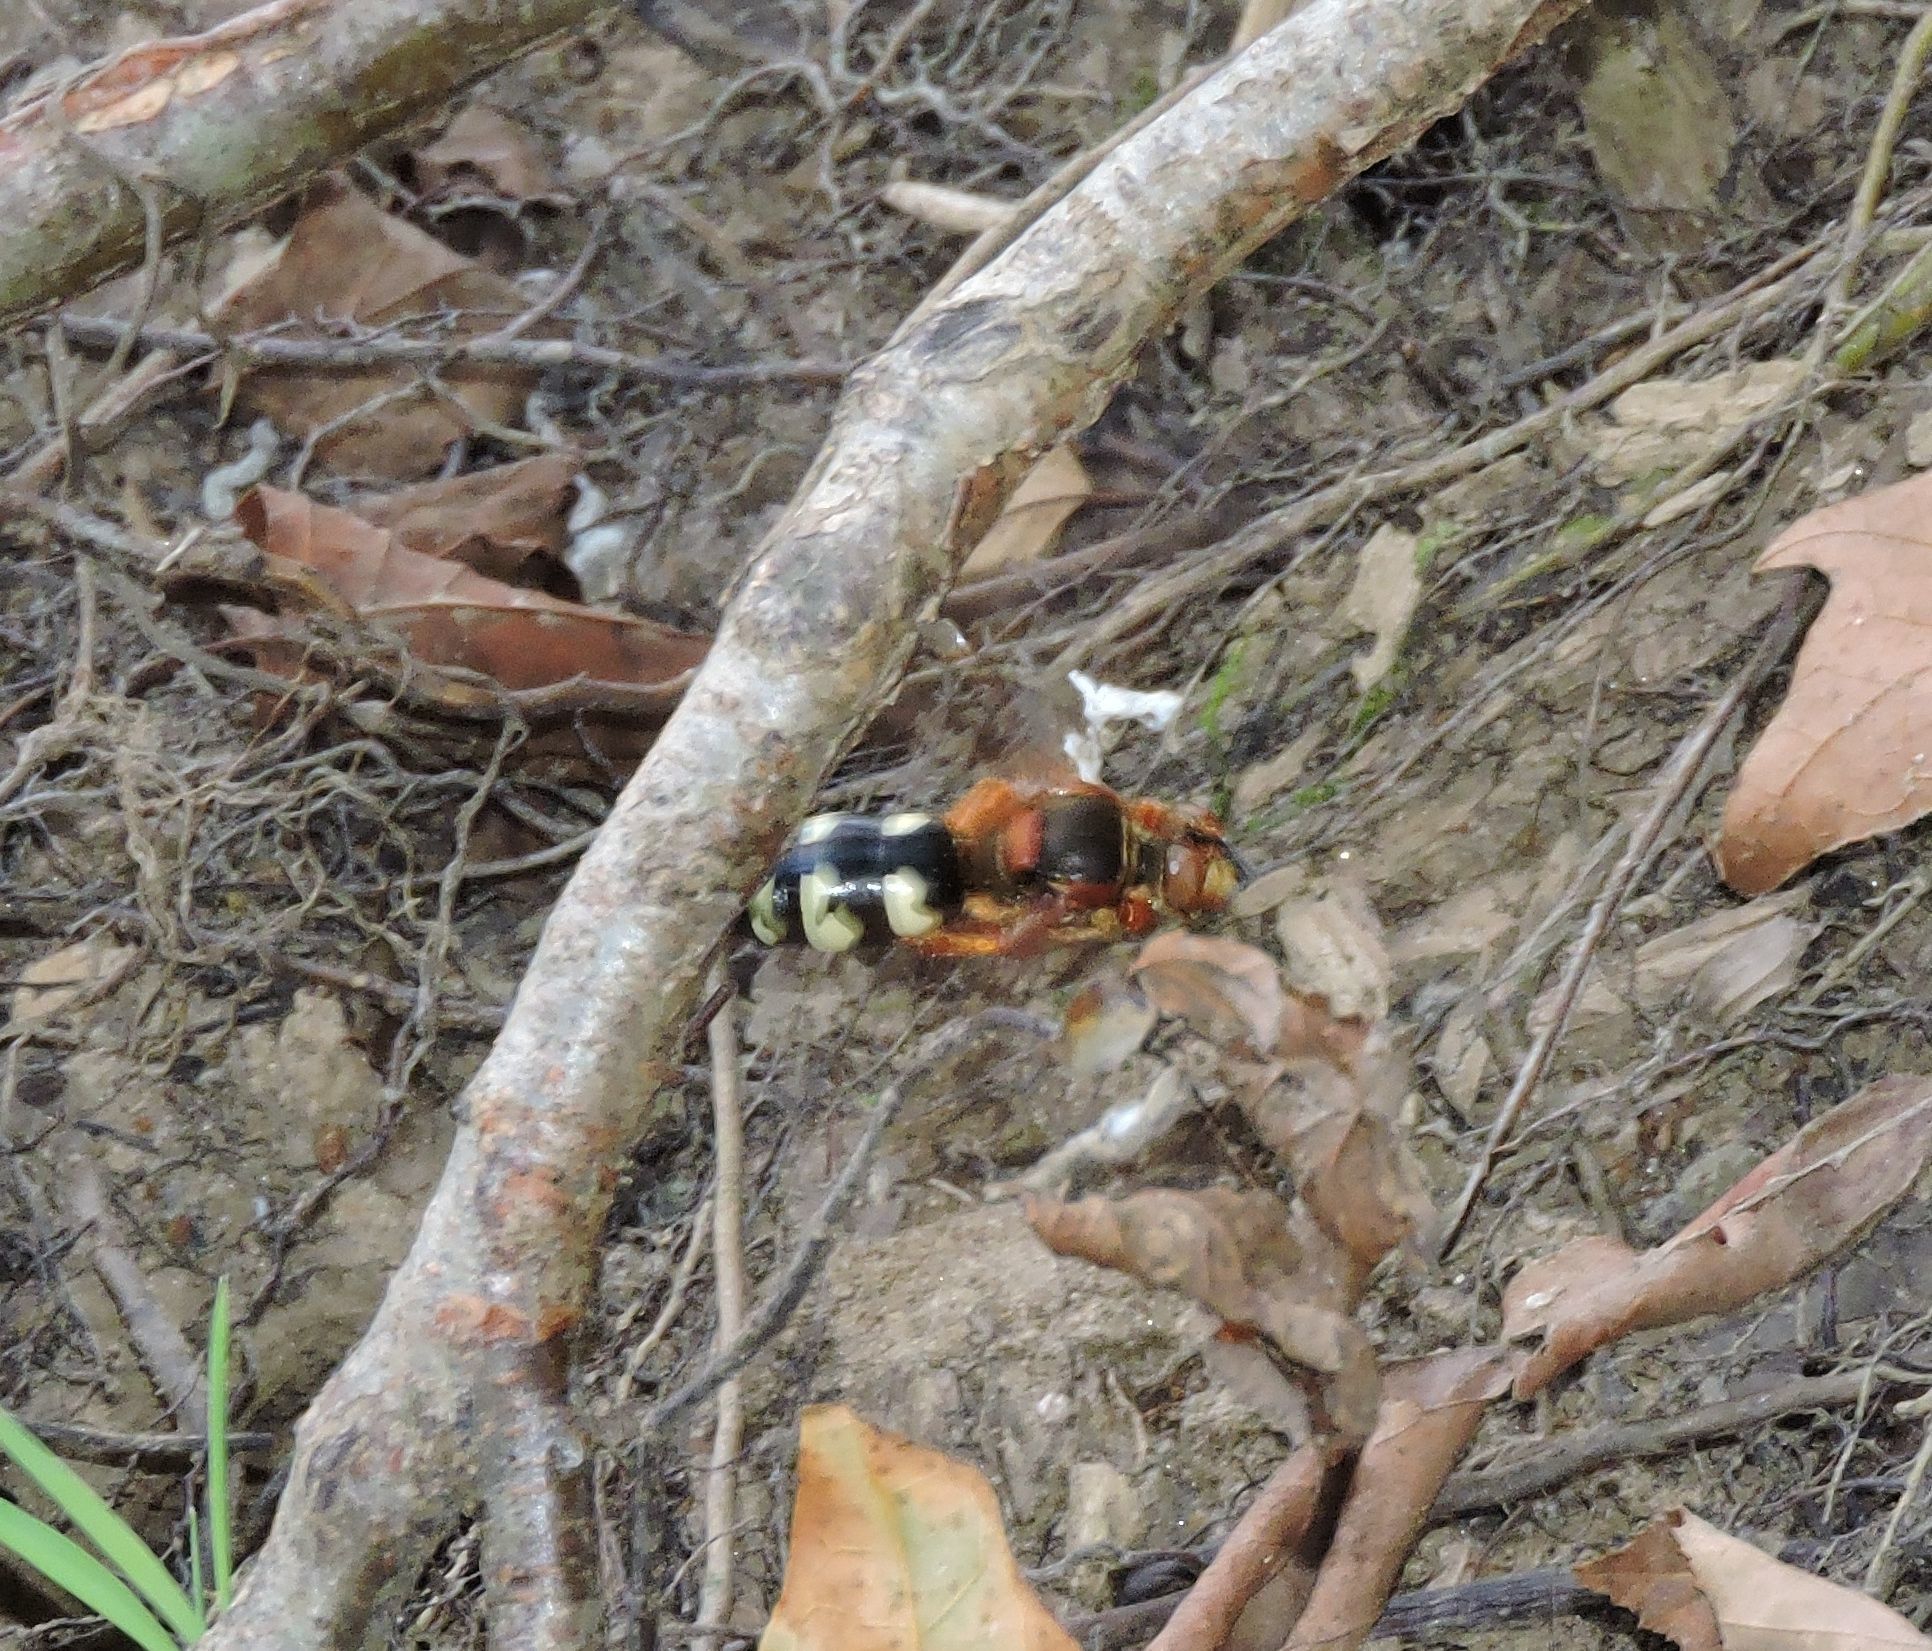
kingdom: Animalia
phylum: Arthropoda
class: Insecta
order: Hymenoptera
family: Crabronidae
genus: Sphecius
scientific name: Sphecius speciosus
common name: Cicada killer
